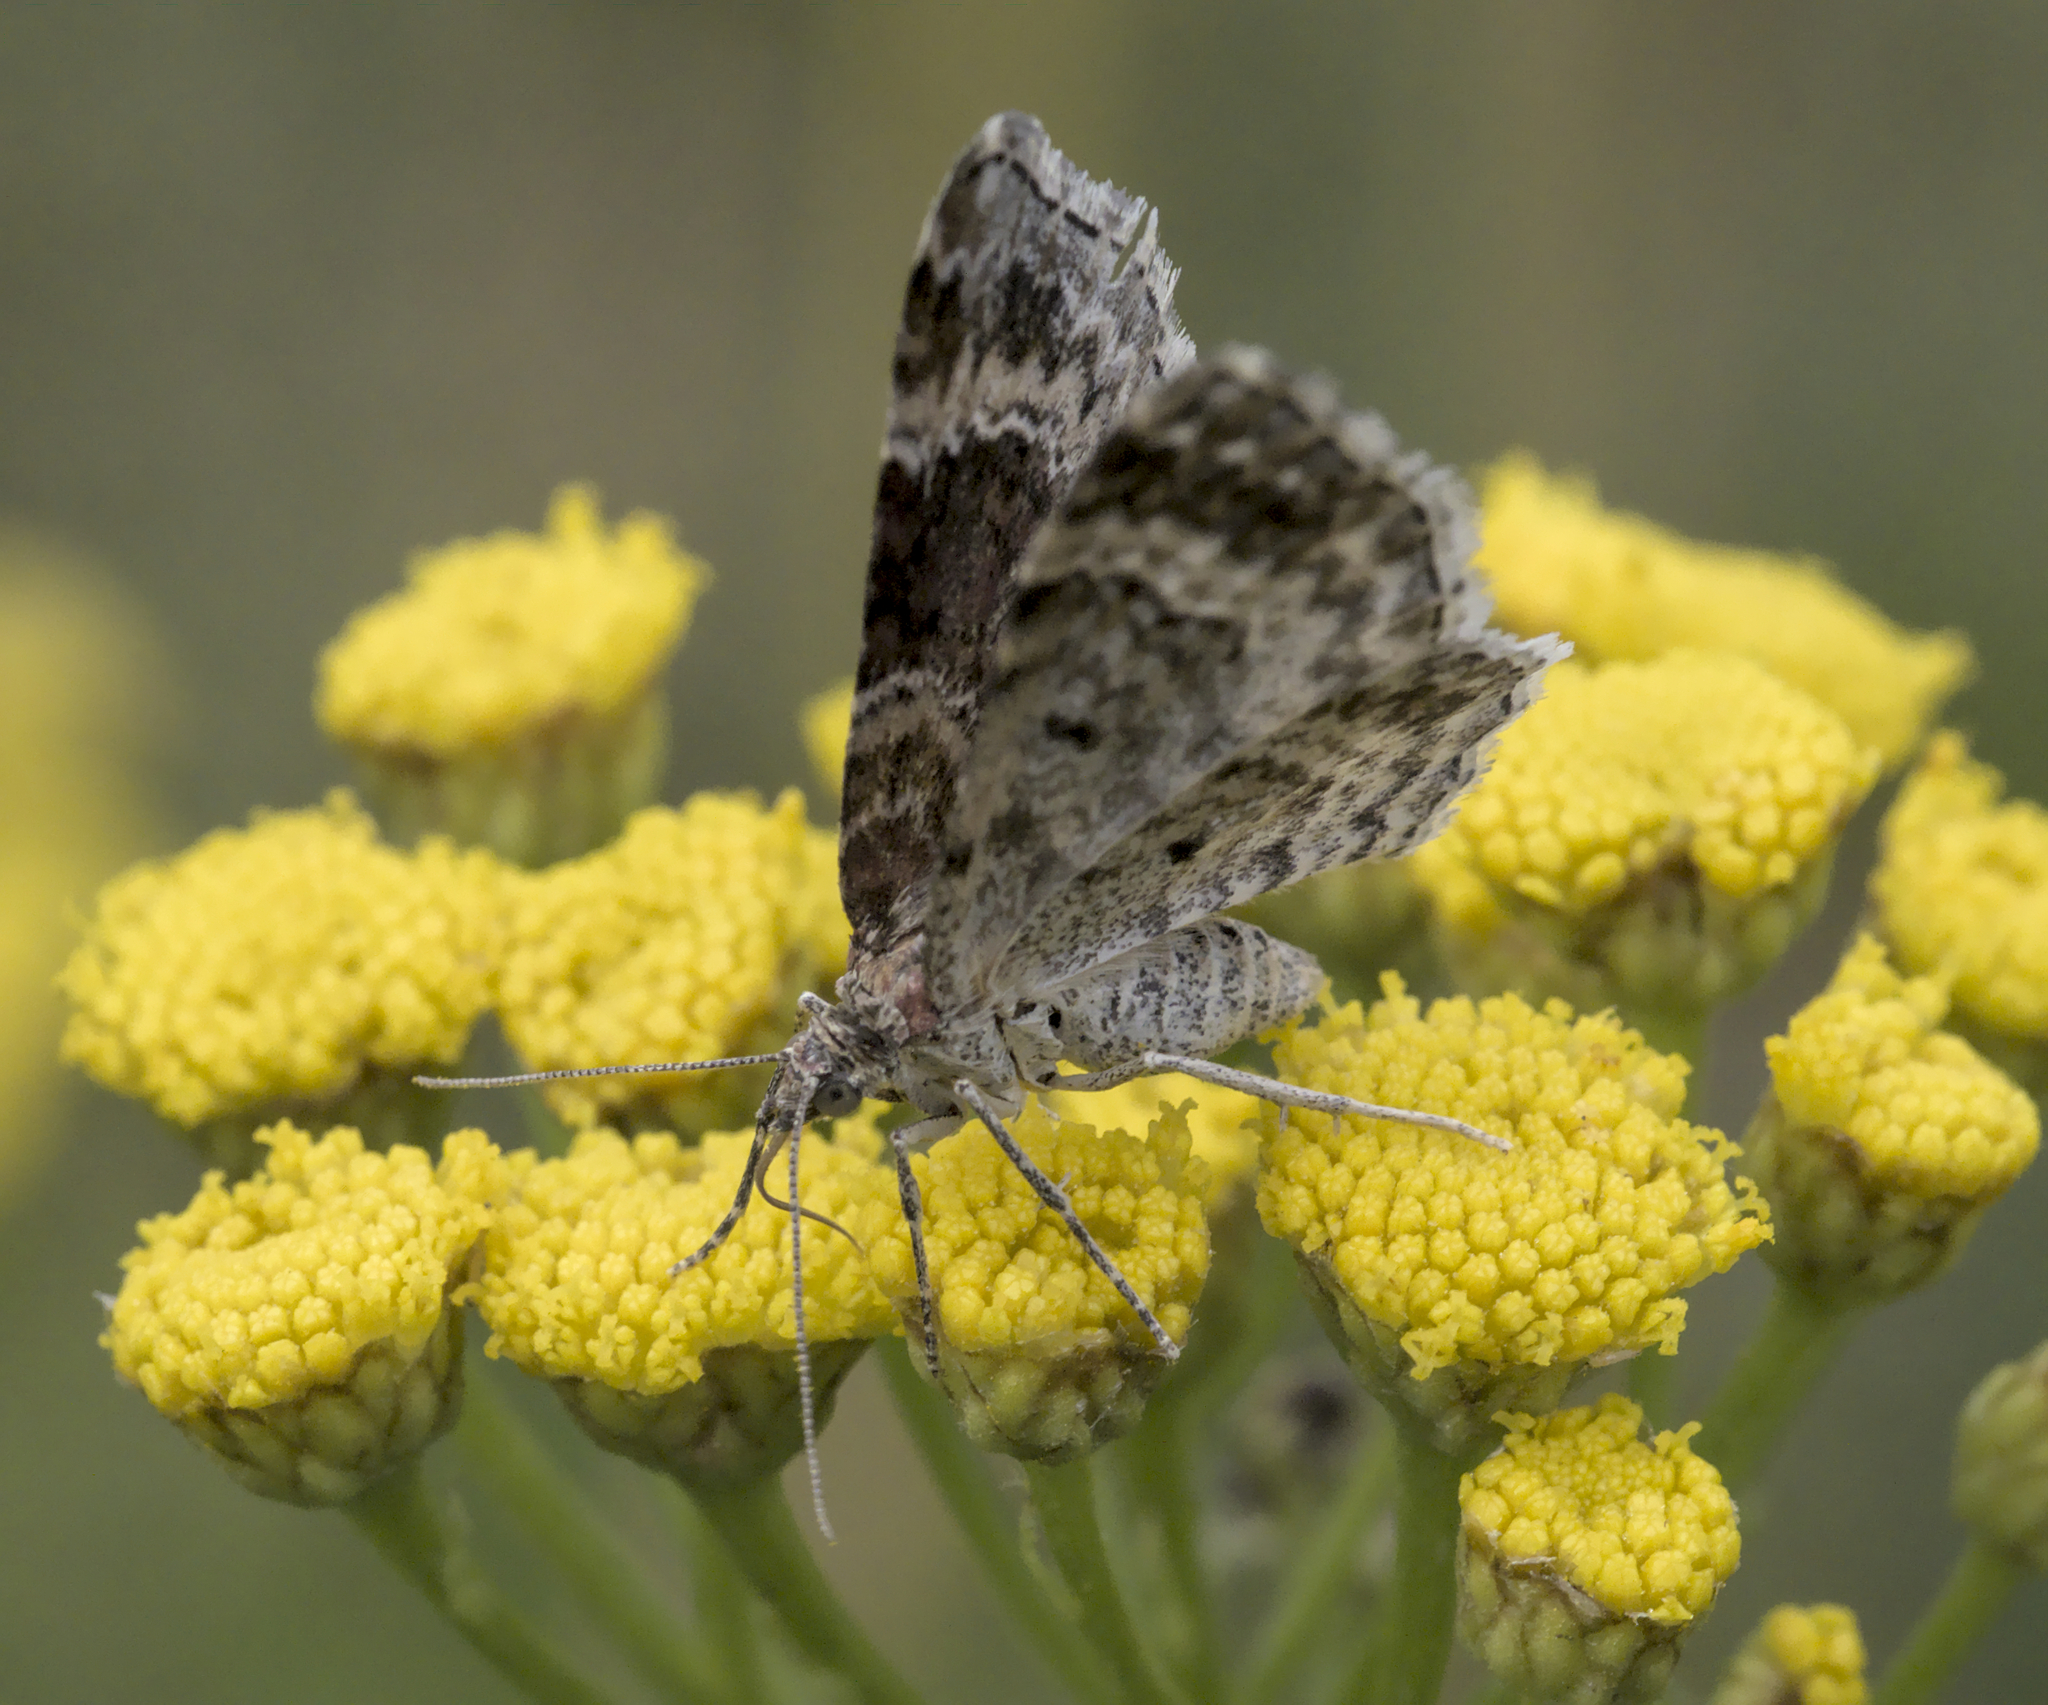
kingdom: Animalia
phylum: Arthropoda
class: Insecta
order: Lepidoptera
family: Geometridae
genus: Xanthorhoe
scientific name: Xanthorhoe spadicearia
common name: Red twin-spot carpet
